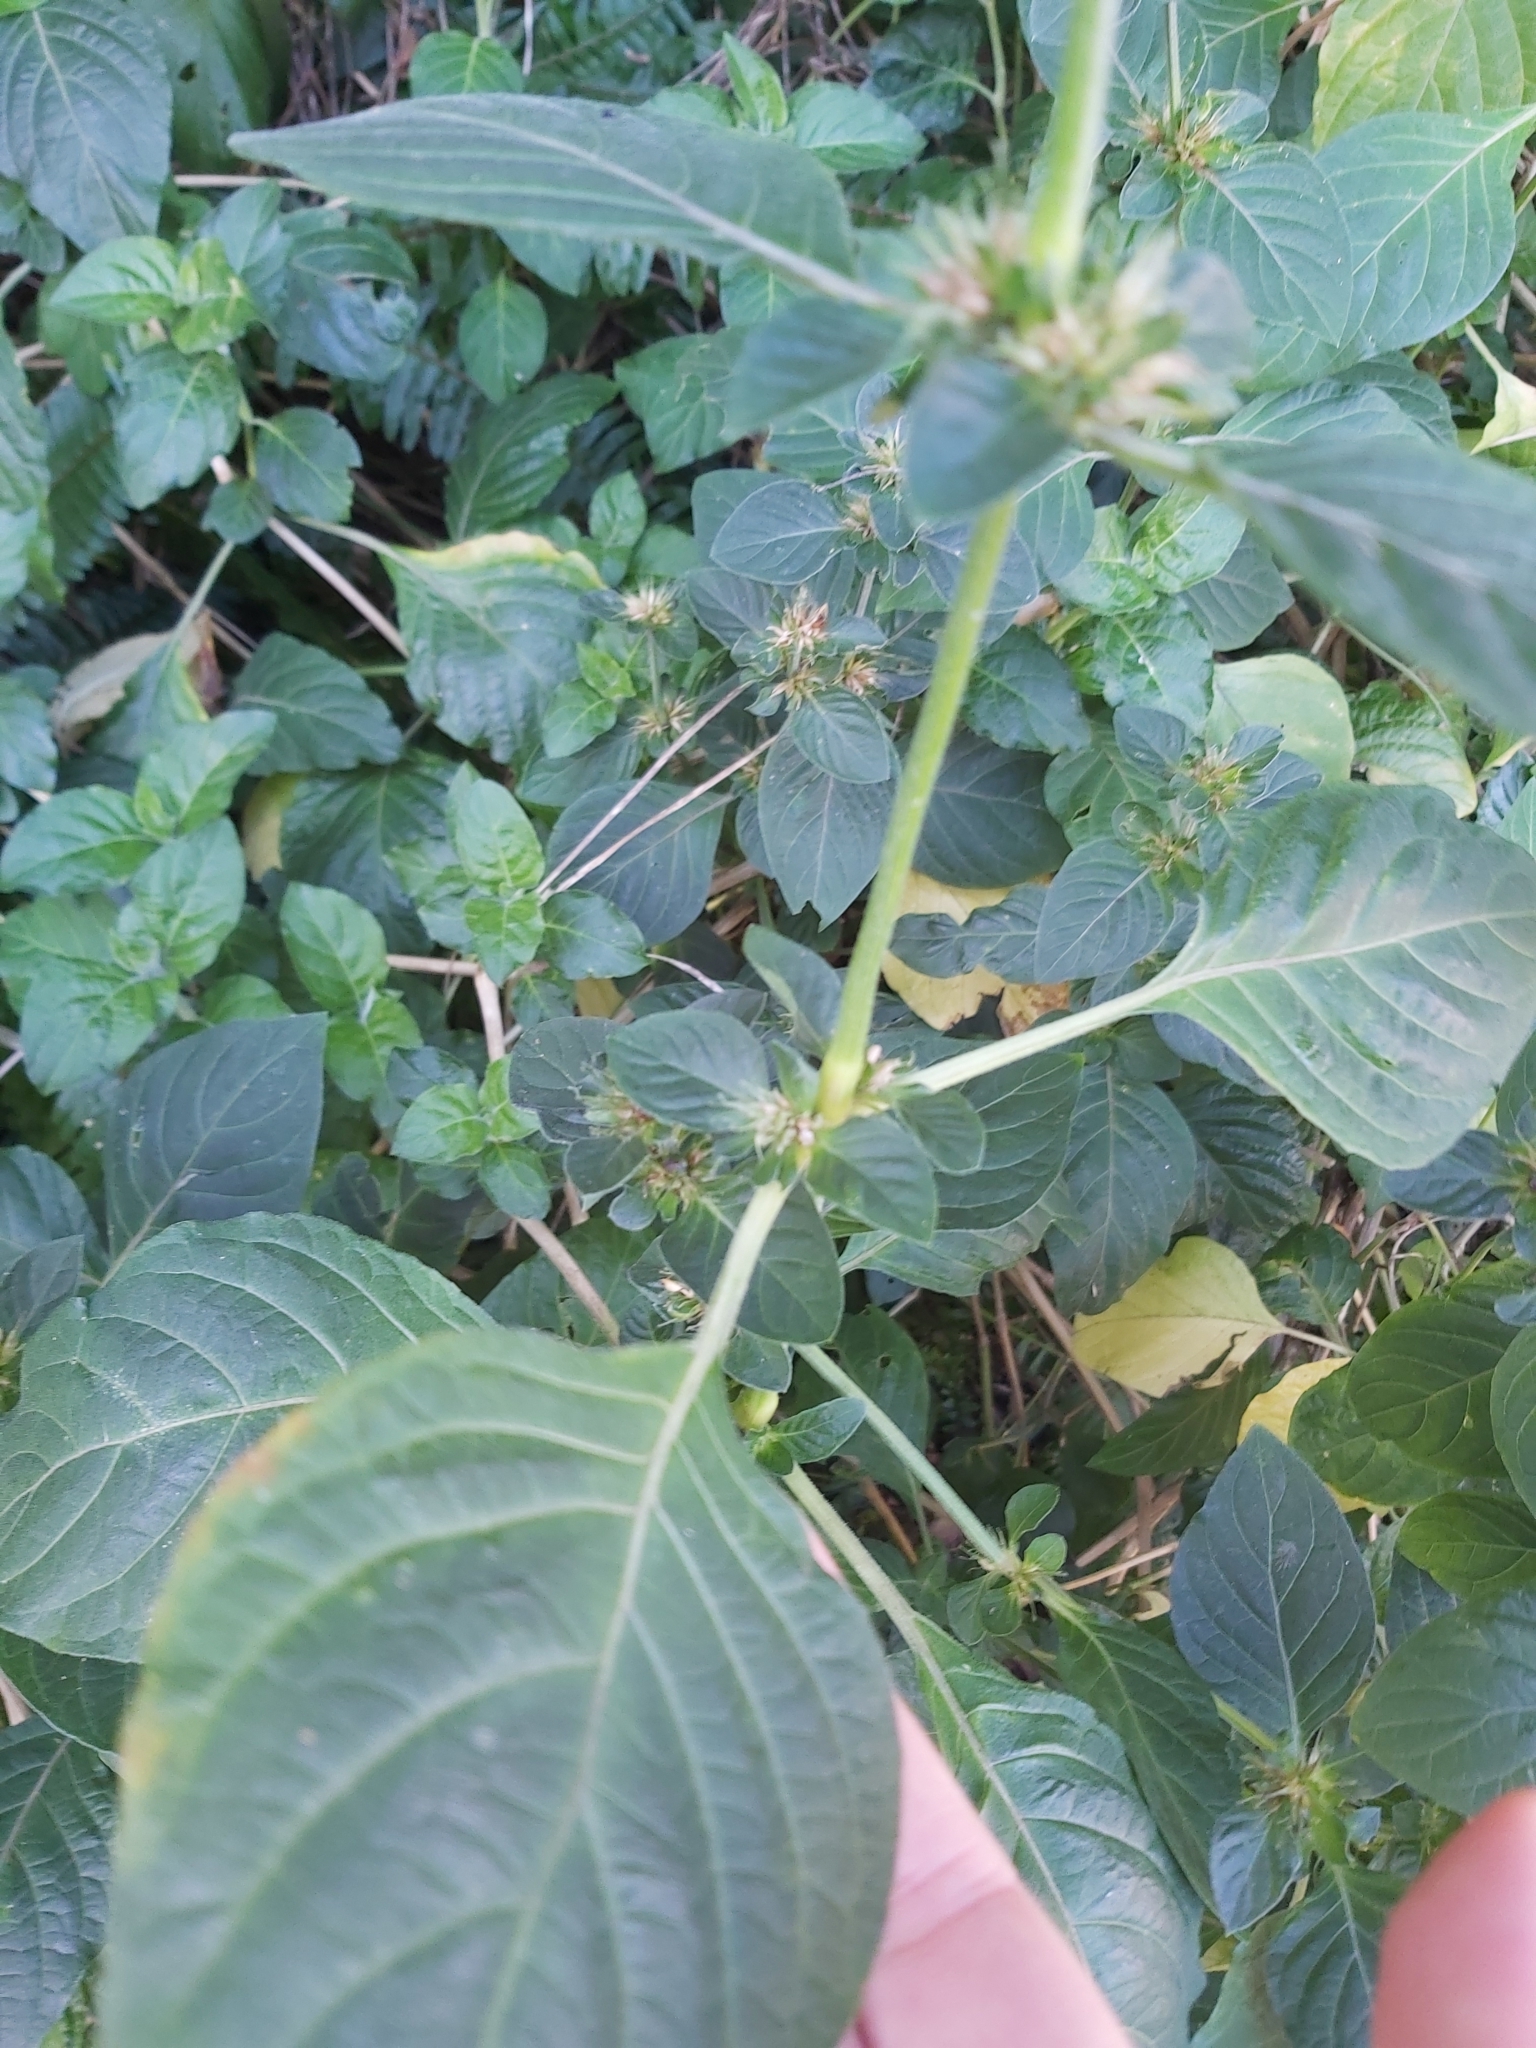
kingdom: Plantae
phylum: Tracheophyta
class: Magnoliopsida
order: Lamiales
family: Acanthaceae
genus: Hypoestes
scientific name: Hypoestes aristata
